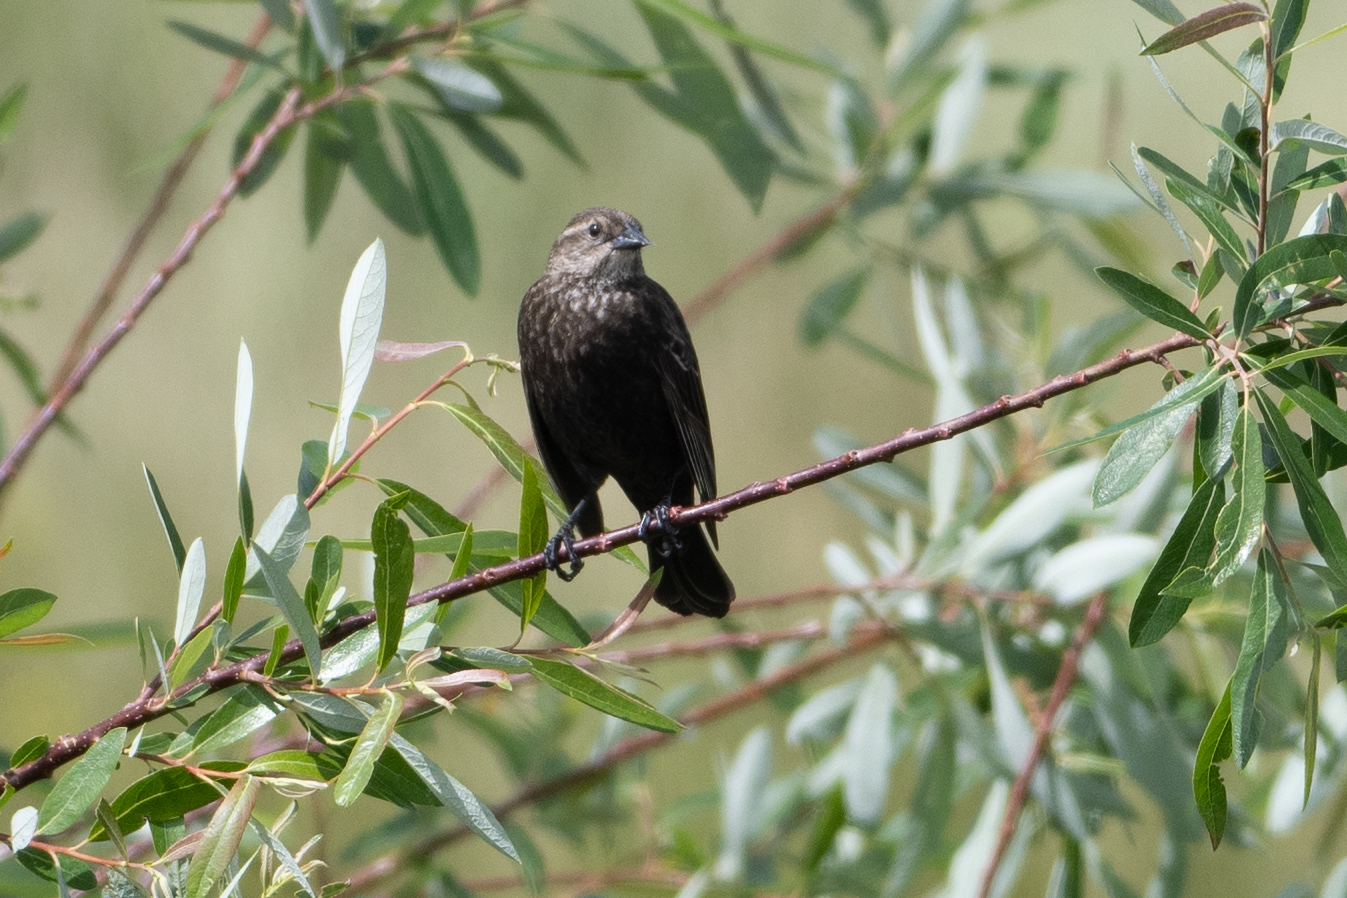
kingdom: Animalia
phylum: Chordata
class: Aves
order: Passeriformes
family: Icteridae
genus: Agelaius
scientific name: Agelaius phoeniceus
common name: Red-winged blackbird
